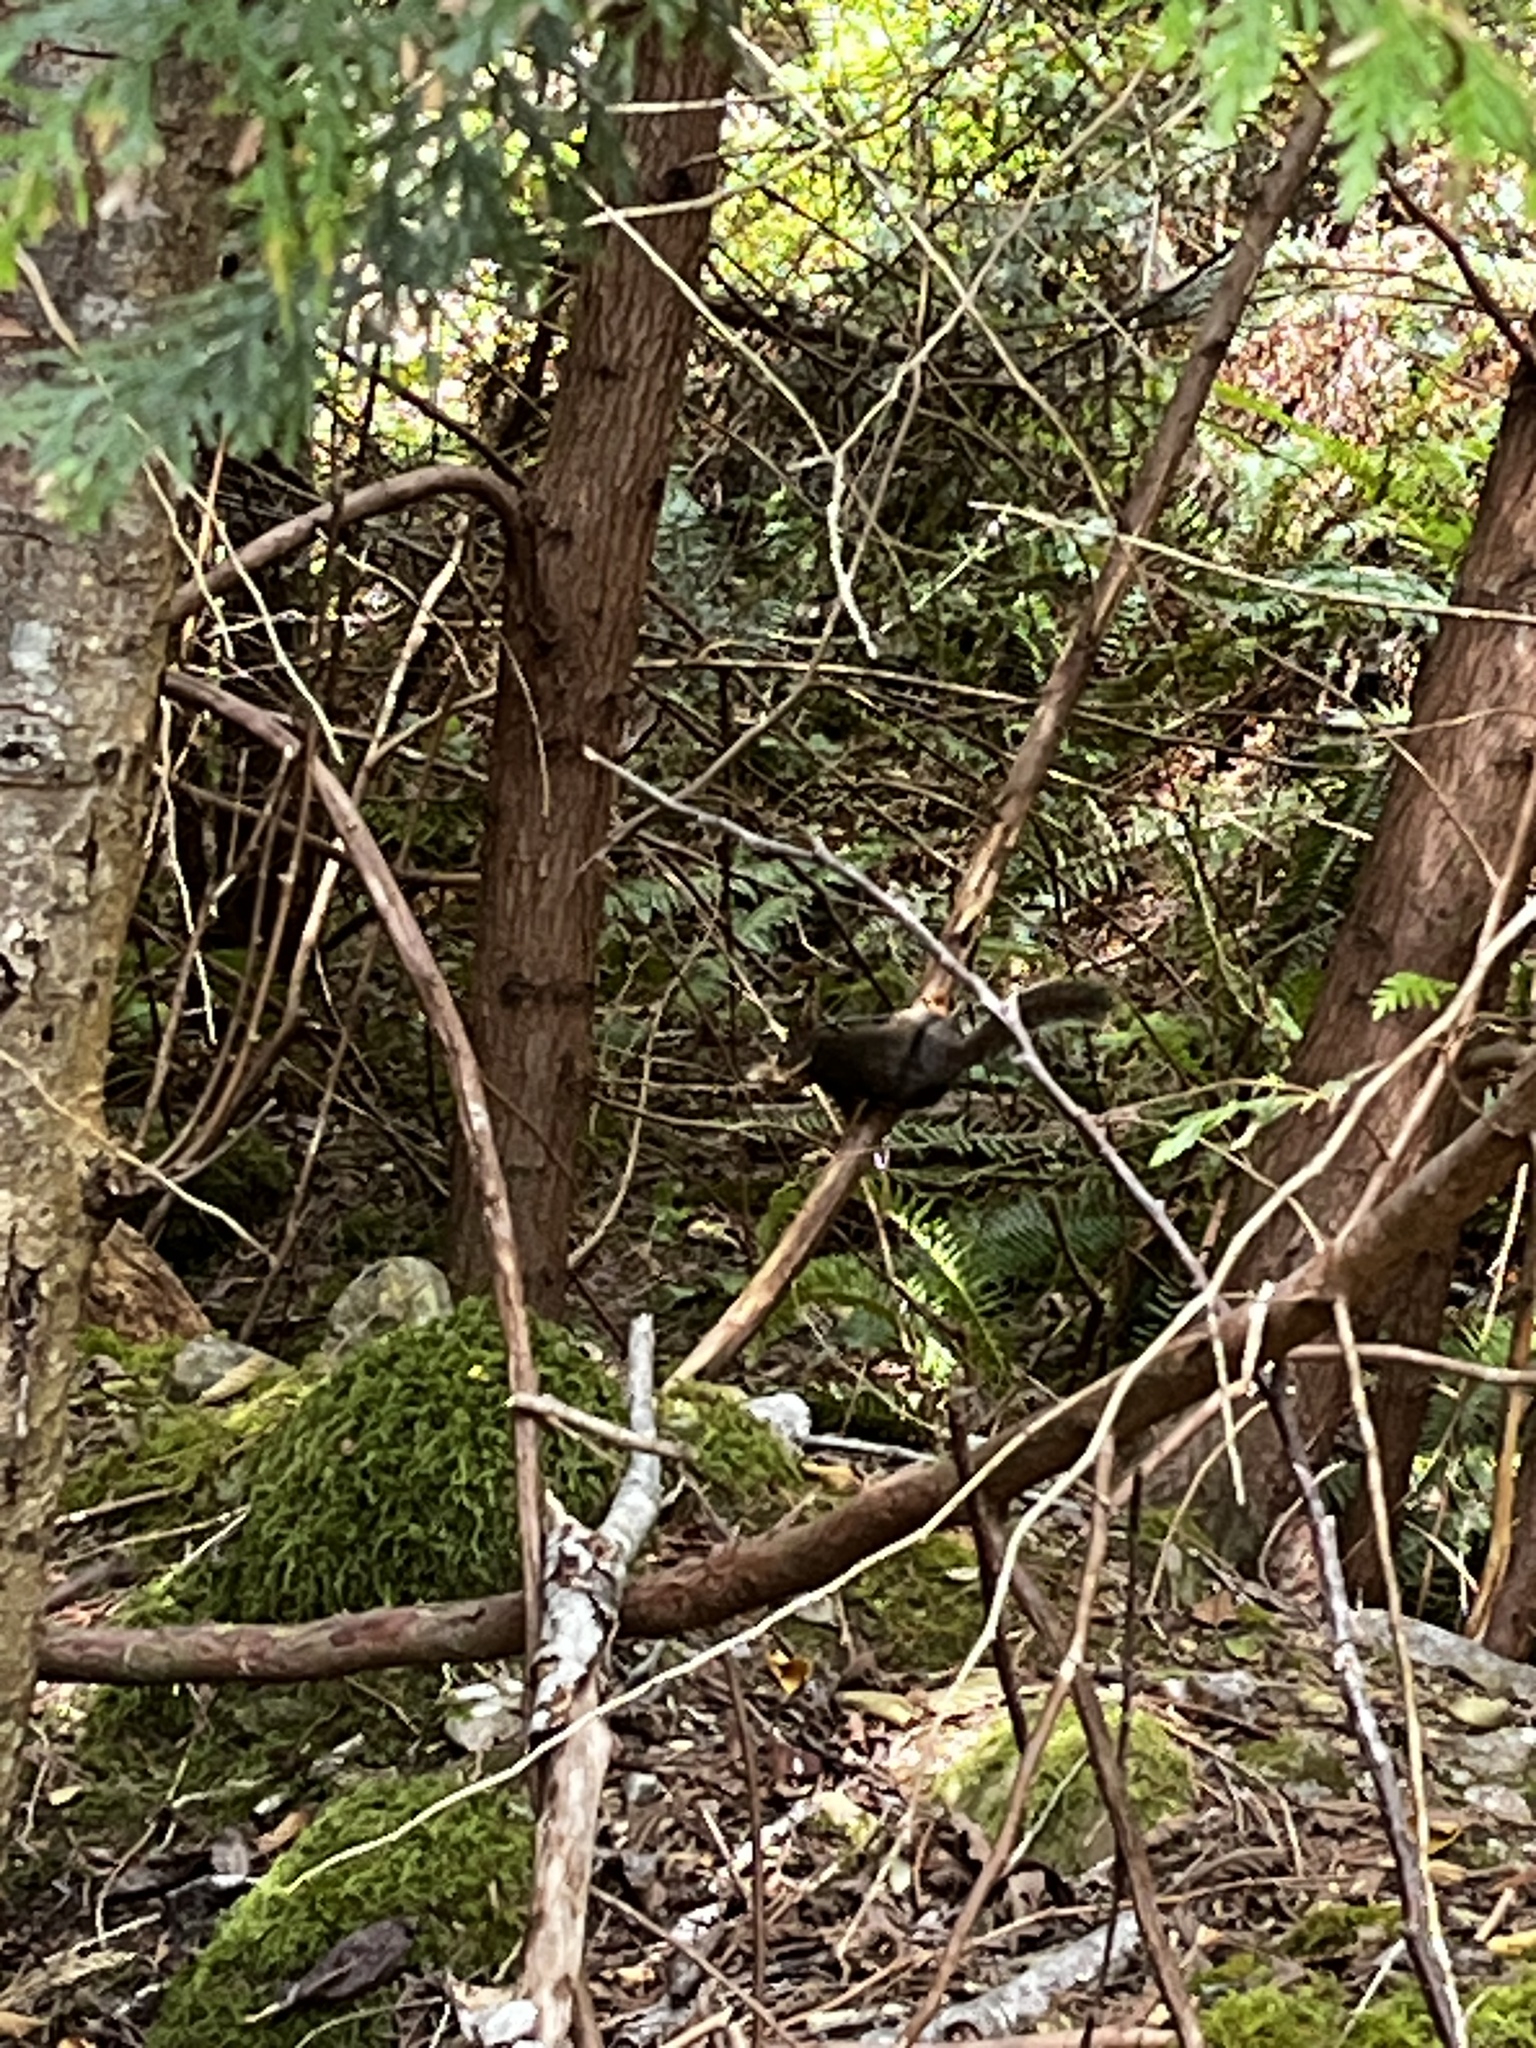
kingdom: Animalia
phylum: Chordata
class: Mammalia
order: Rodentia
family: Sciuridae
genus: Tamiasciurus
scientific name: Tamiasciurus douglasii
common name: Douglas's squirrel
